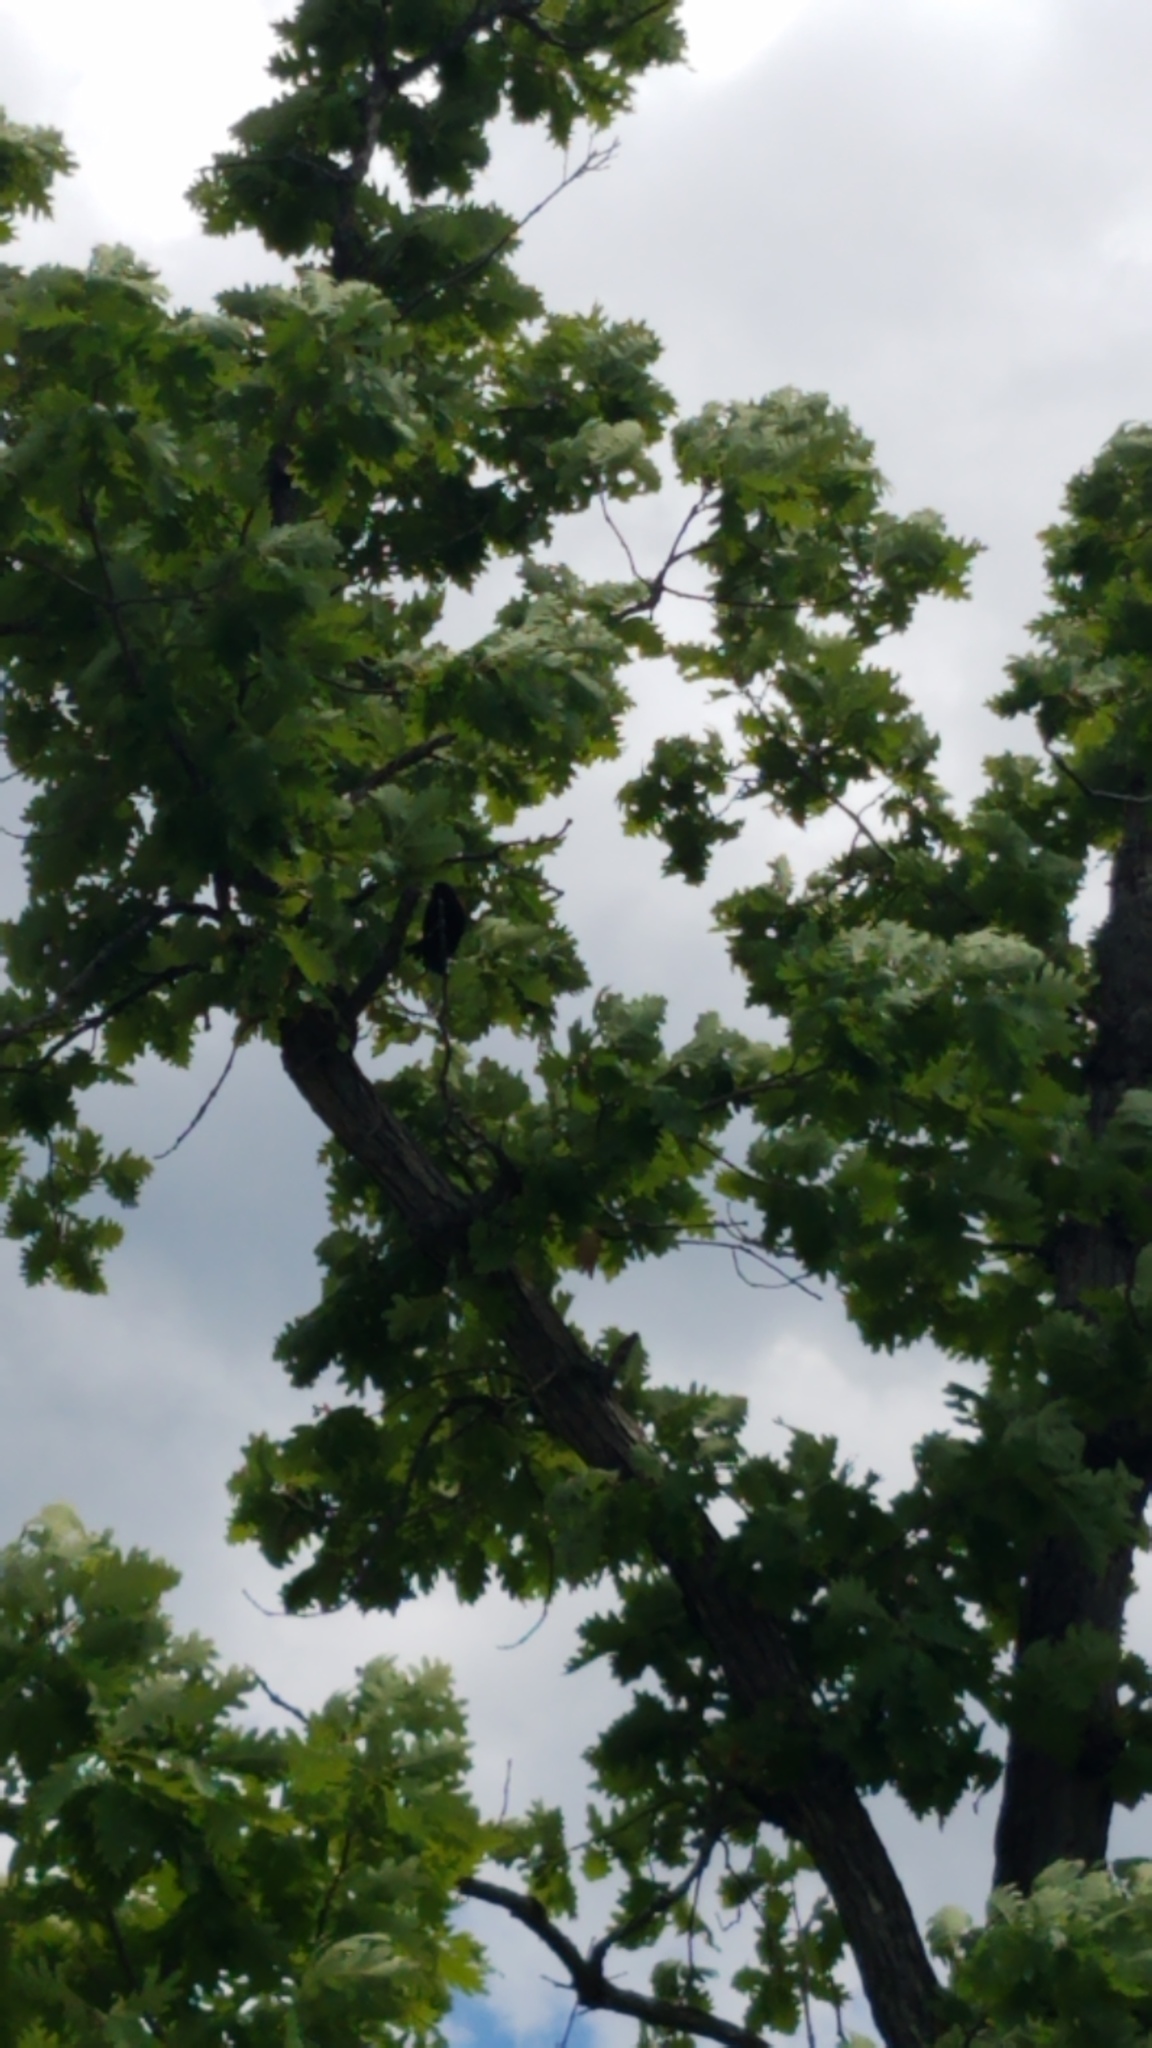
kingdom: Animalia
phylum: Chordata
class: Aves
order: Passeriformes
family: Icteridae
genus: Agelaius
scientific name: Agelaius phoeniceus
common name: Red-winged blackbird
